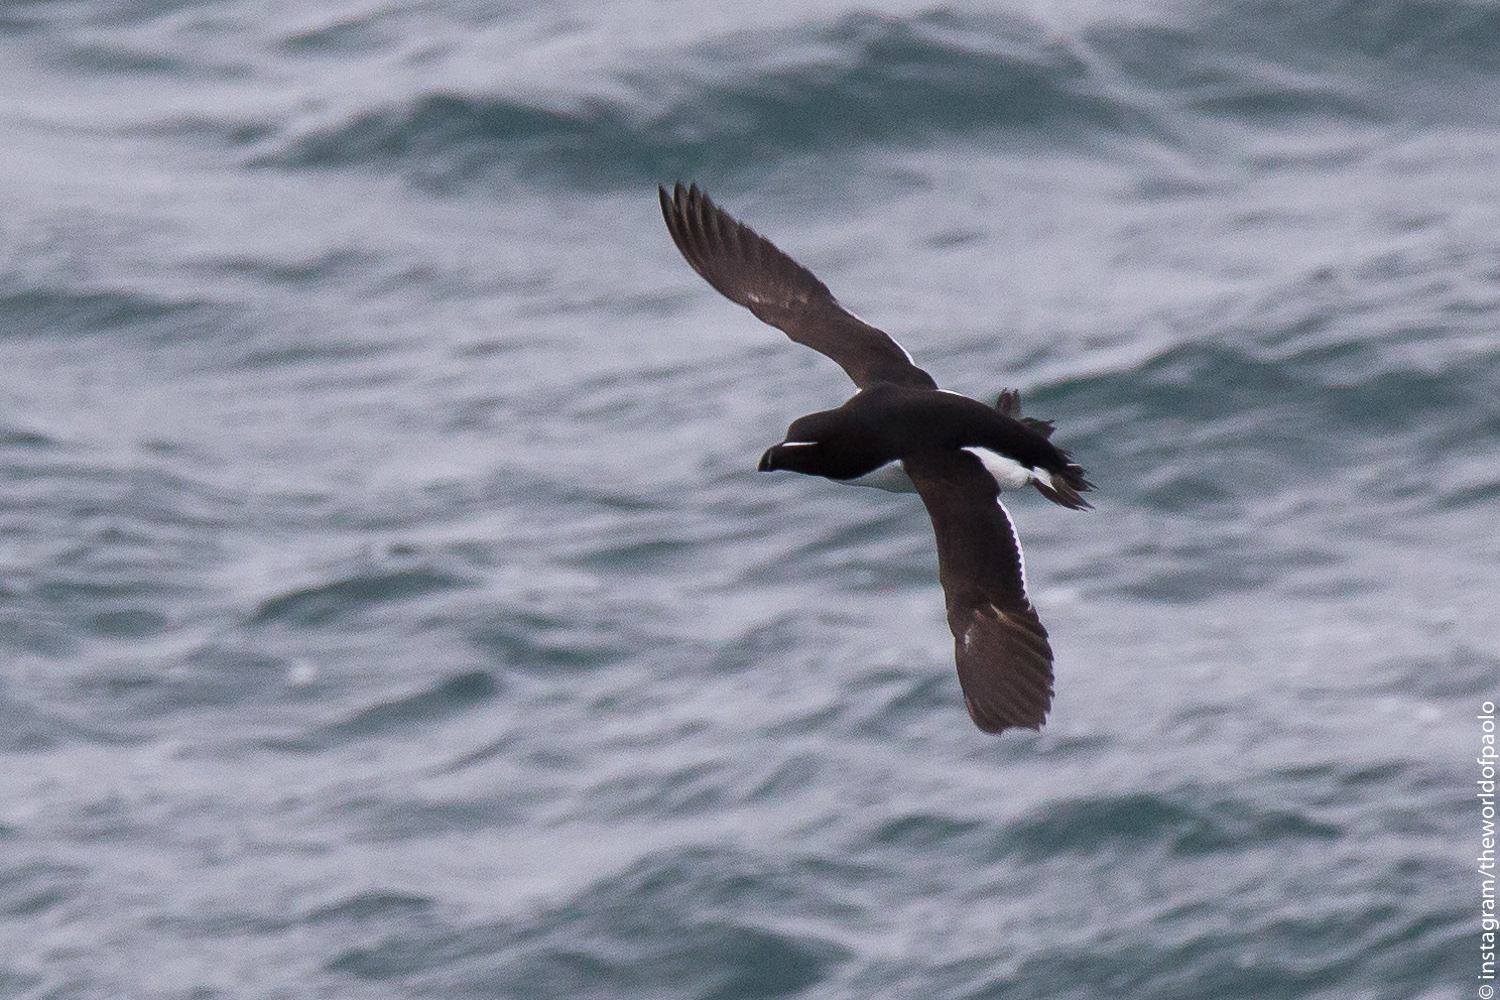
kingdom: Animalia
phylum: Chordata
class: Aves
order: Charadriiformes
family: Alcidae
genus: Alca
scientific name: Alca torda
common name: Razorbill
